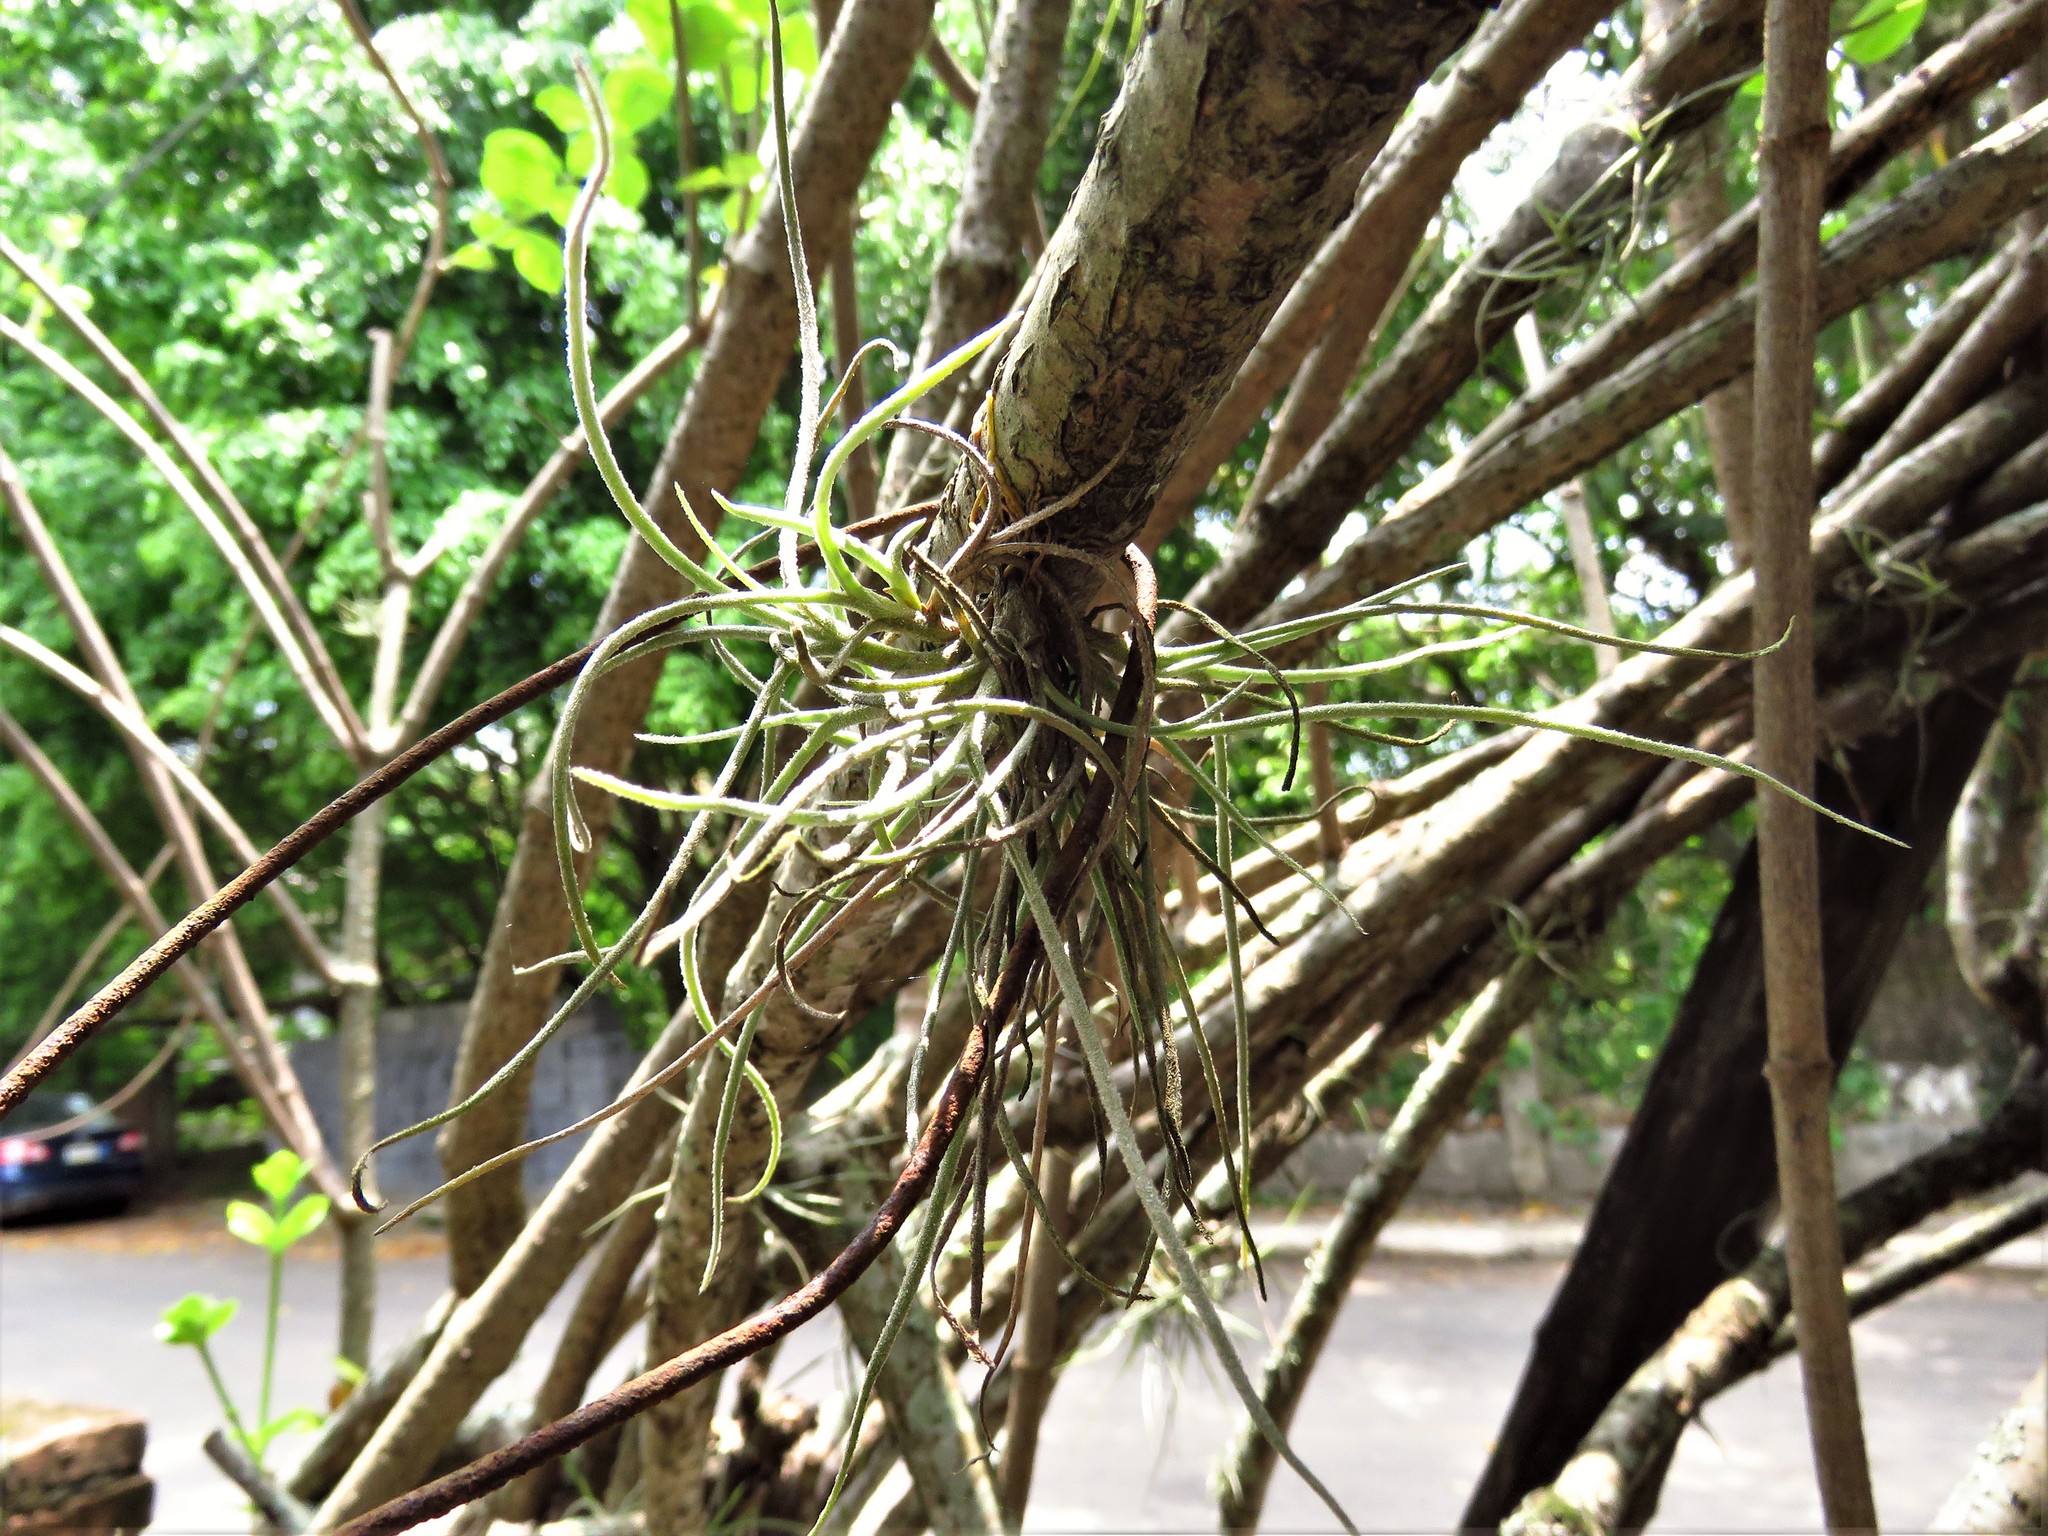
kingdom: Plantae
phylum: Tracheophyta
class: Liliopsida
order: Poales
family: Bromeliaceae
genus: Tillandsia
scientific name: Tillandsia recurvata
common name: Small ballmoss
